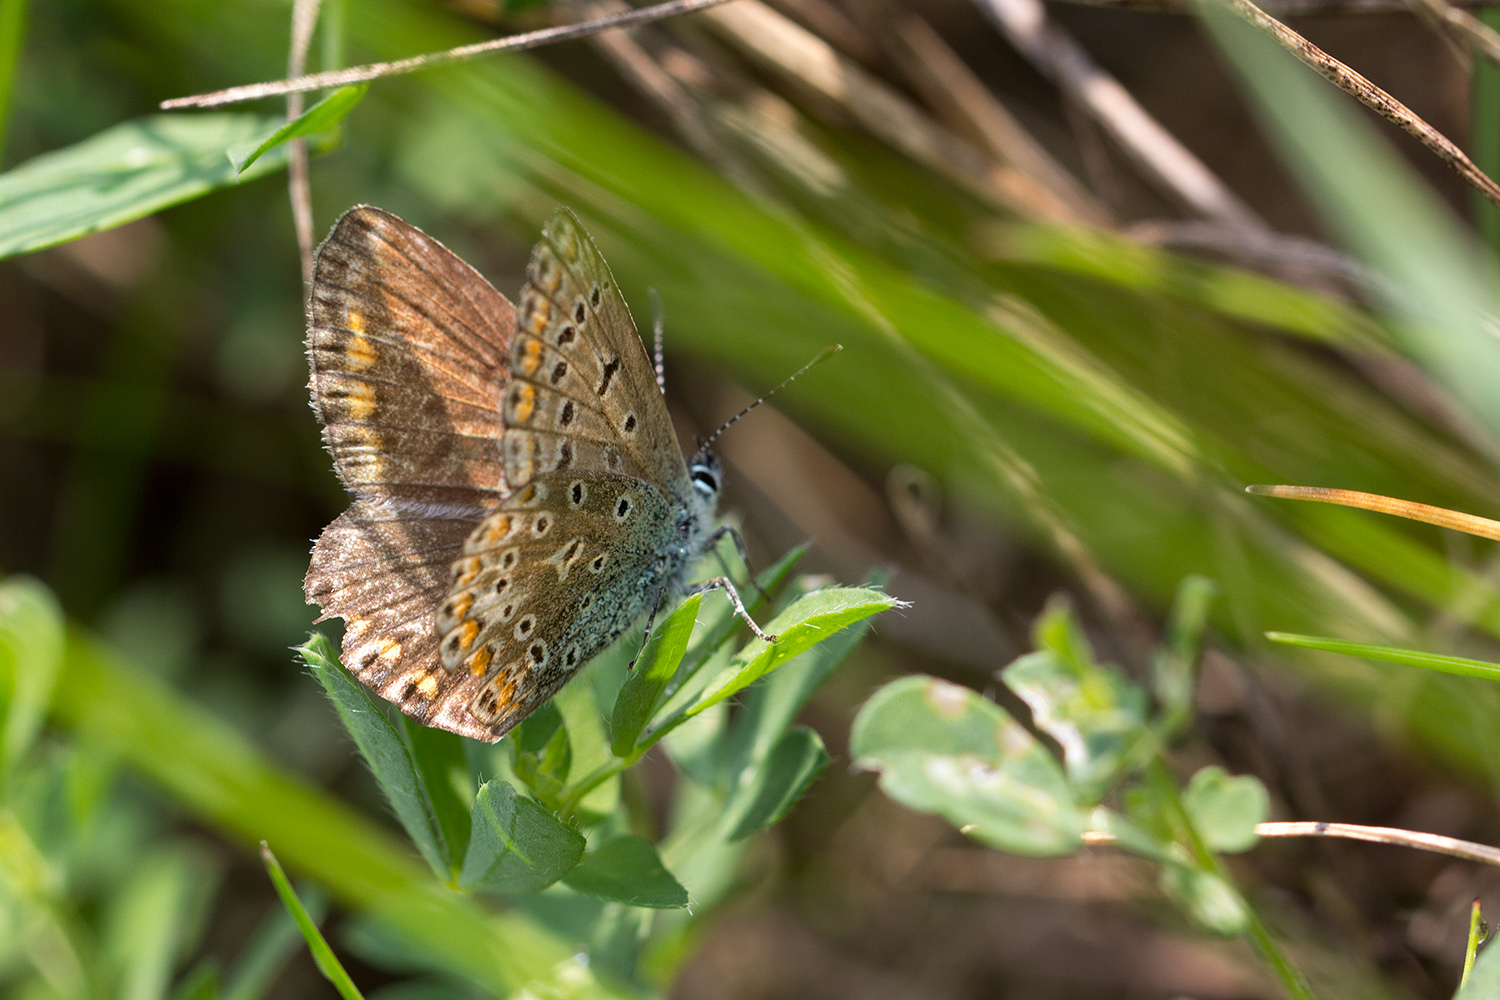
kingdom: Animalia
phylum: Arthropoda
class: Insecta
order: Lepidoptera
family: Lycaenidae
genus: Polyommatus
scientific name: Polyommatus icarus
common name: Common blue
